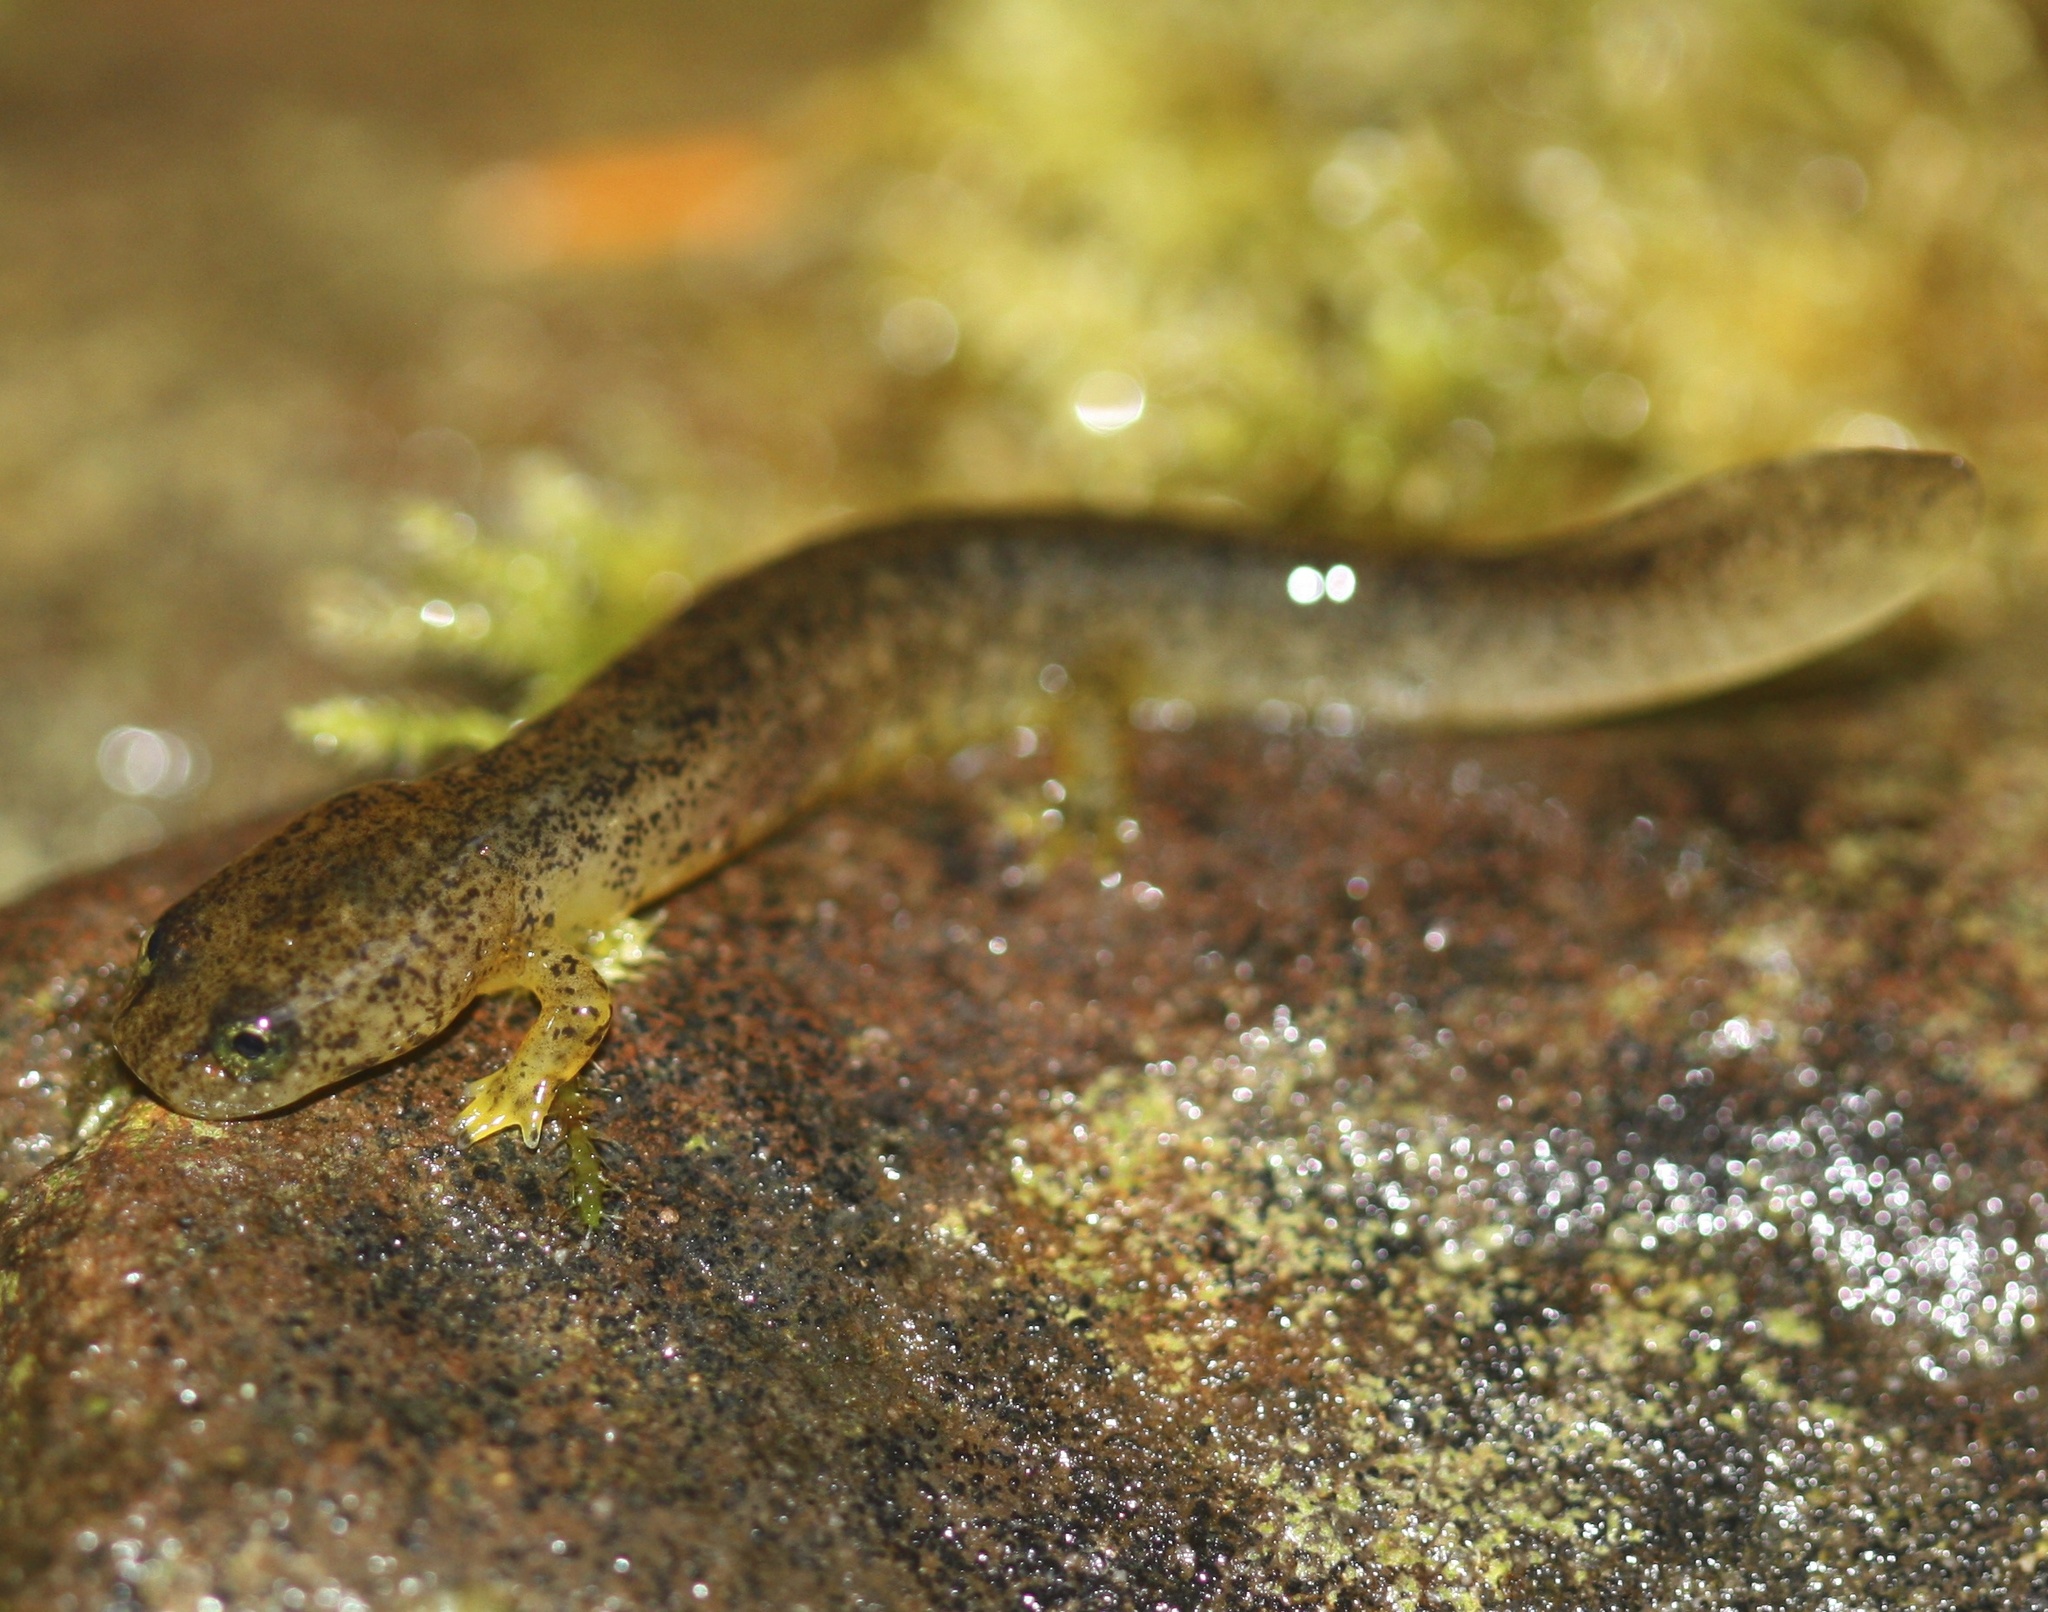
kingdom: Animalia
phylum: Chordata
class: Amphibia
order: Caudata
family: Rhyacotritonidae
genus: Rhyacotriton
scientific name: Rhyacotriton variegatus
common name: Southern torrent salamander
